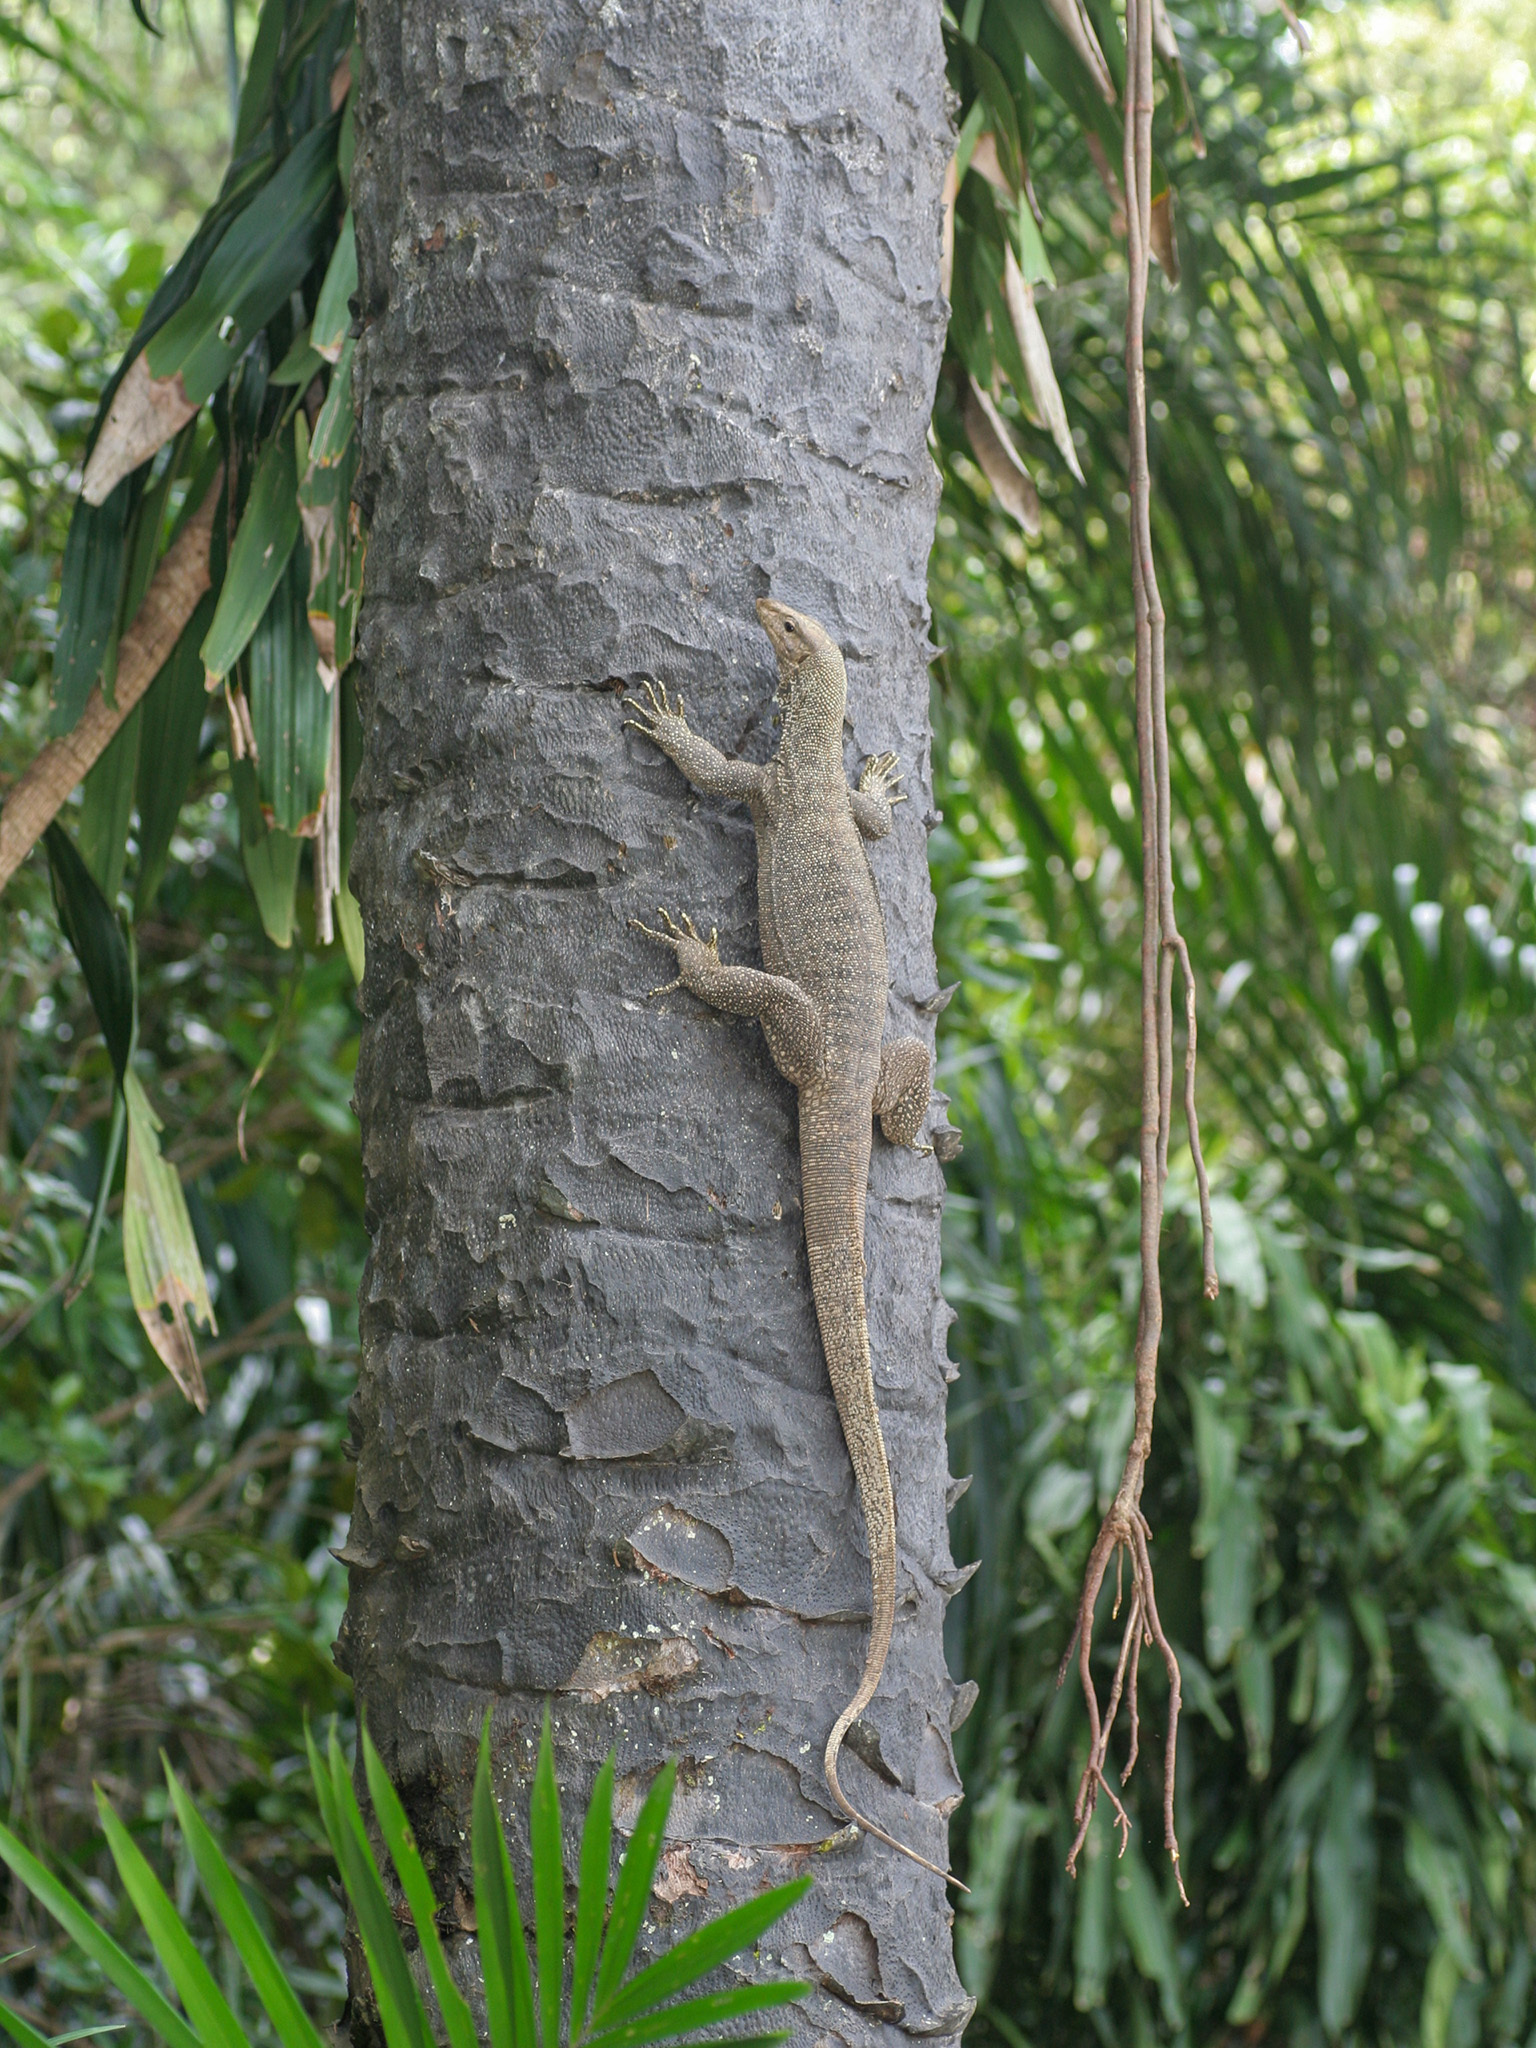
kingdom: Animalia
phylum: Chordata
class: Squamata
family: Varanidae
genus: Varanus
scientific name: Varanus nebulosus
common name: Clouded monitor
